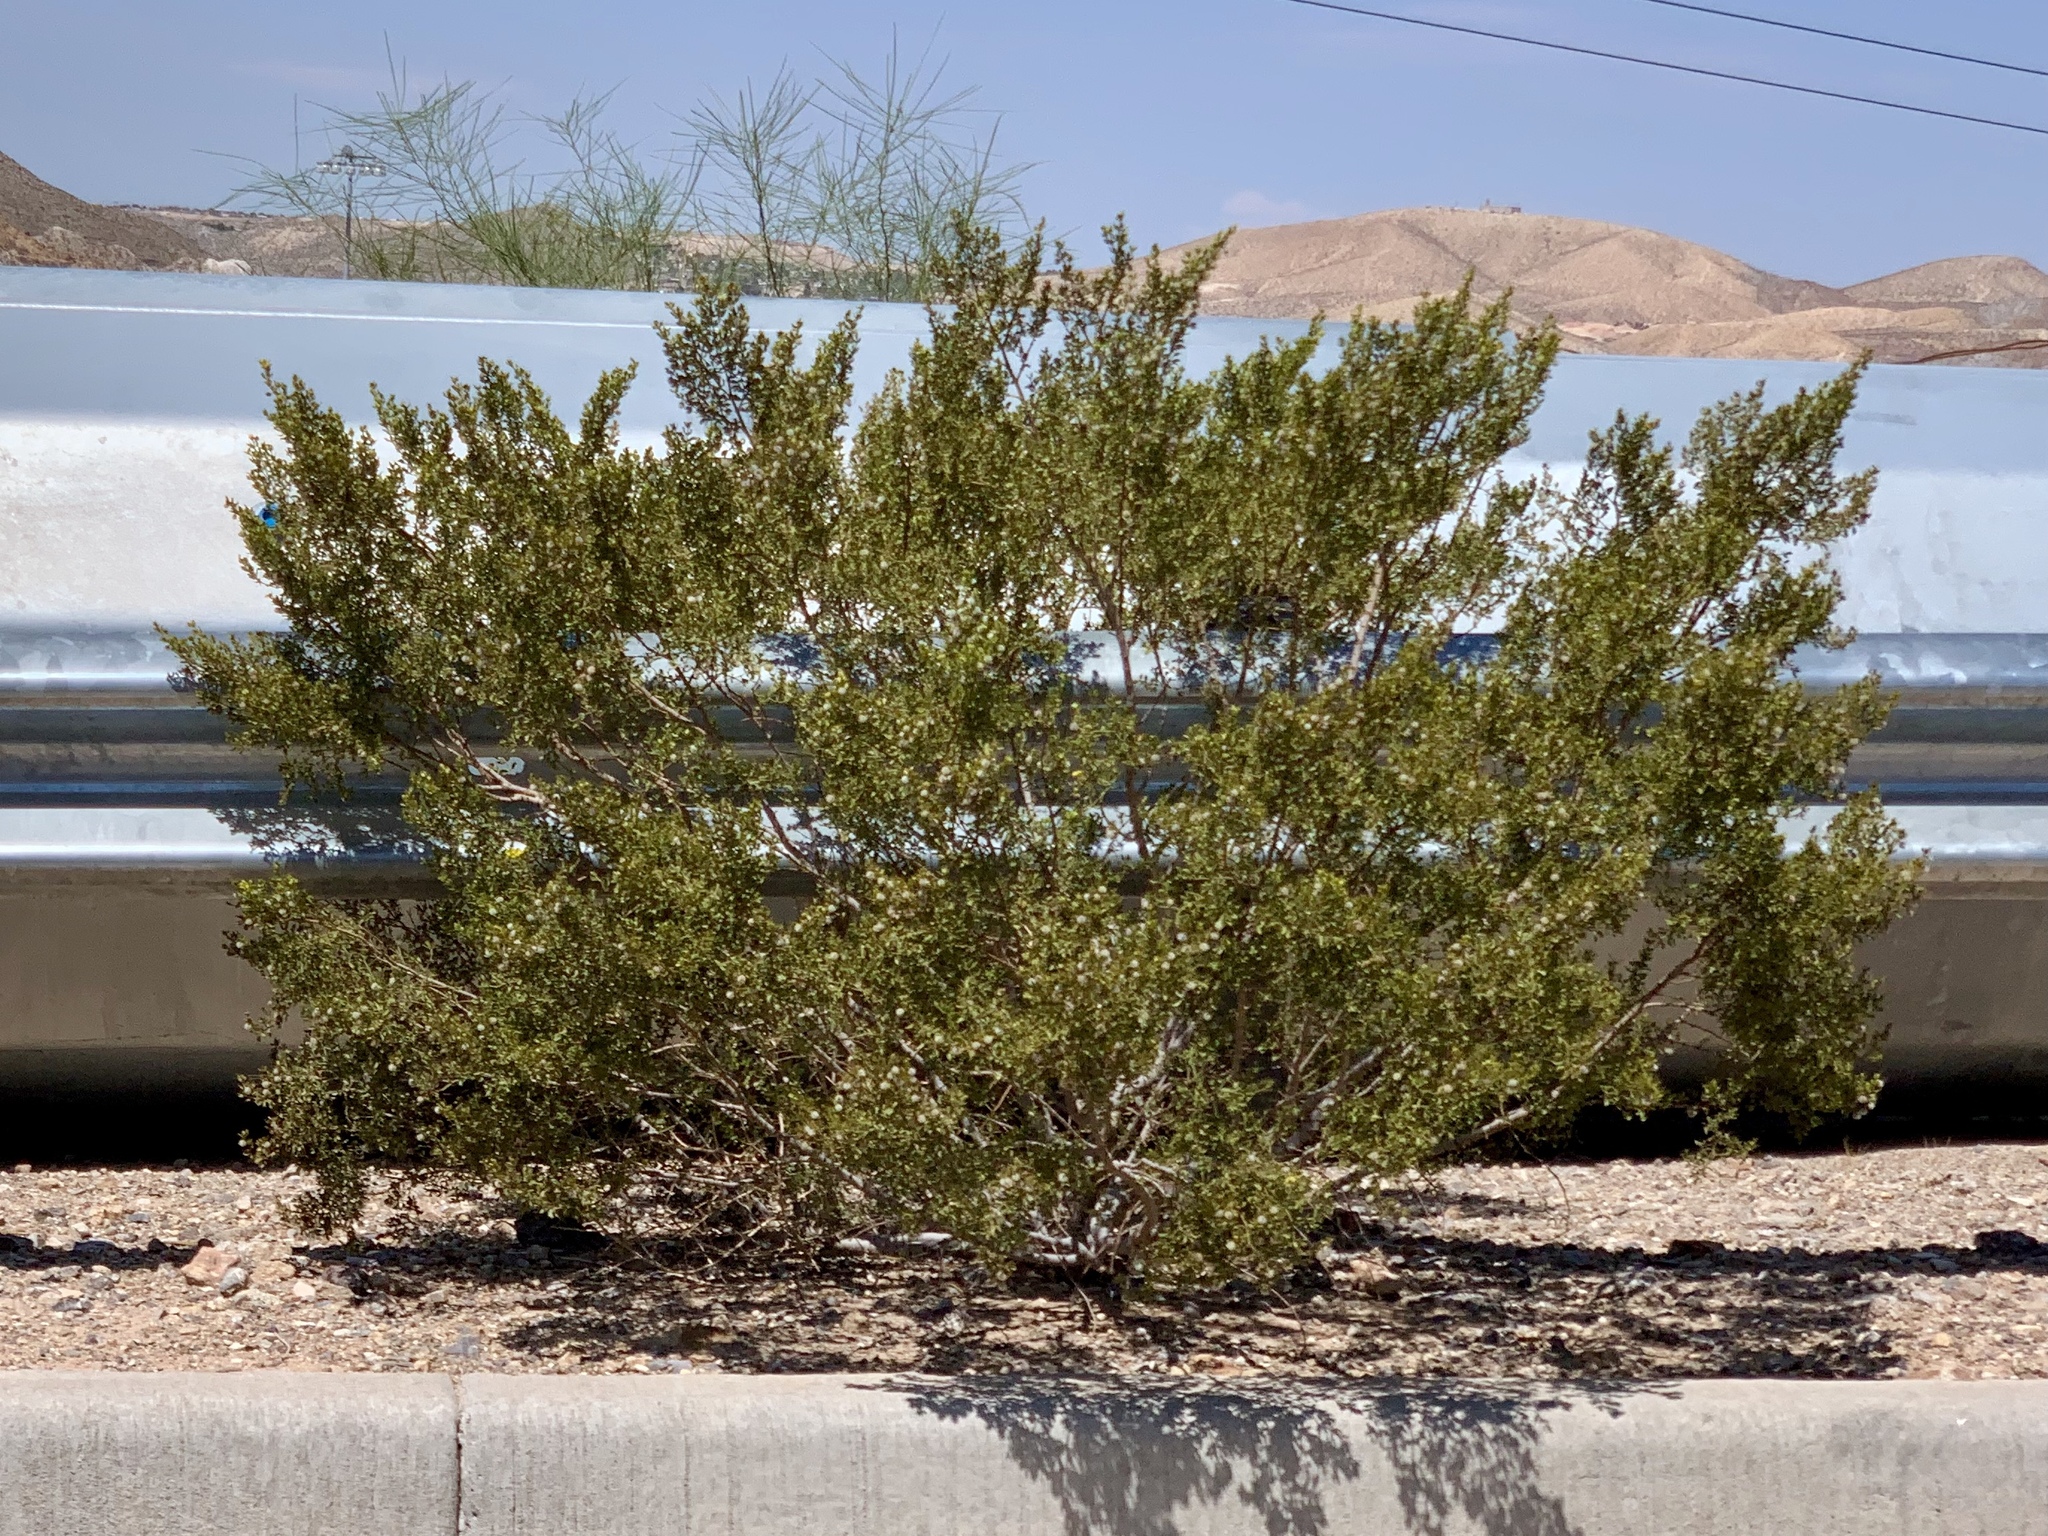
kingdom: Plantae
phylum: Tracheophyta
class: Magnoliopsida
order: Zygophyllales
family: Zygophyllaceae
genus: Larrea
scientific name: Larrea tridentata
